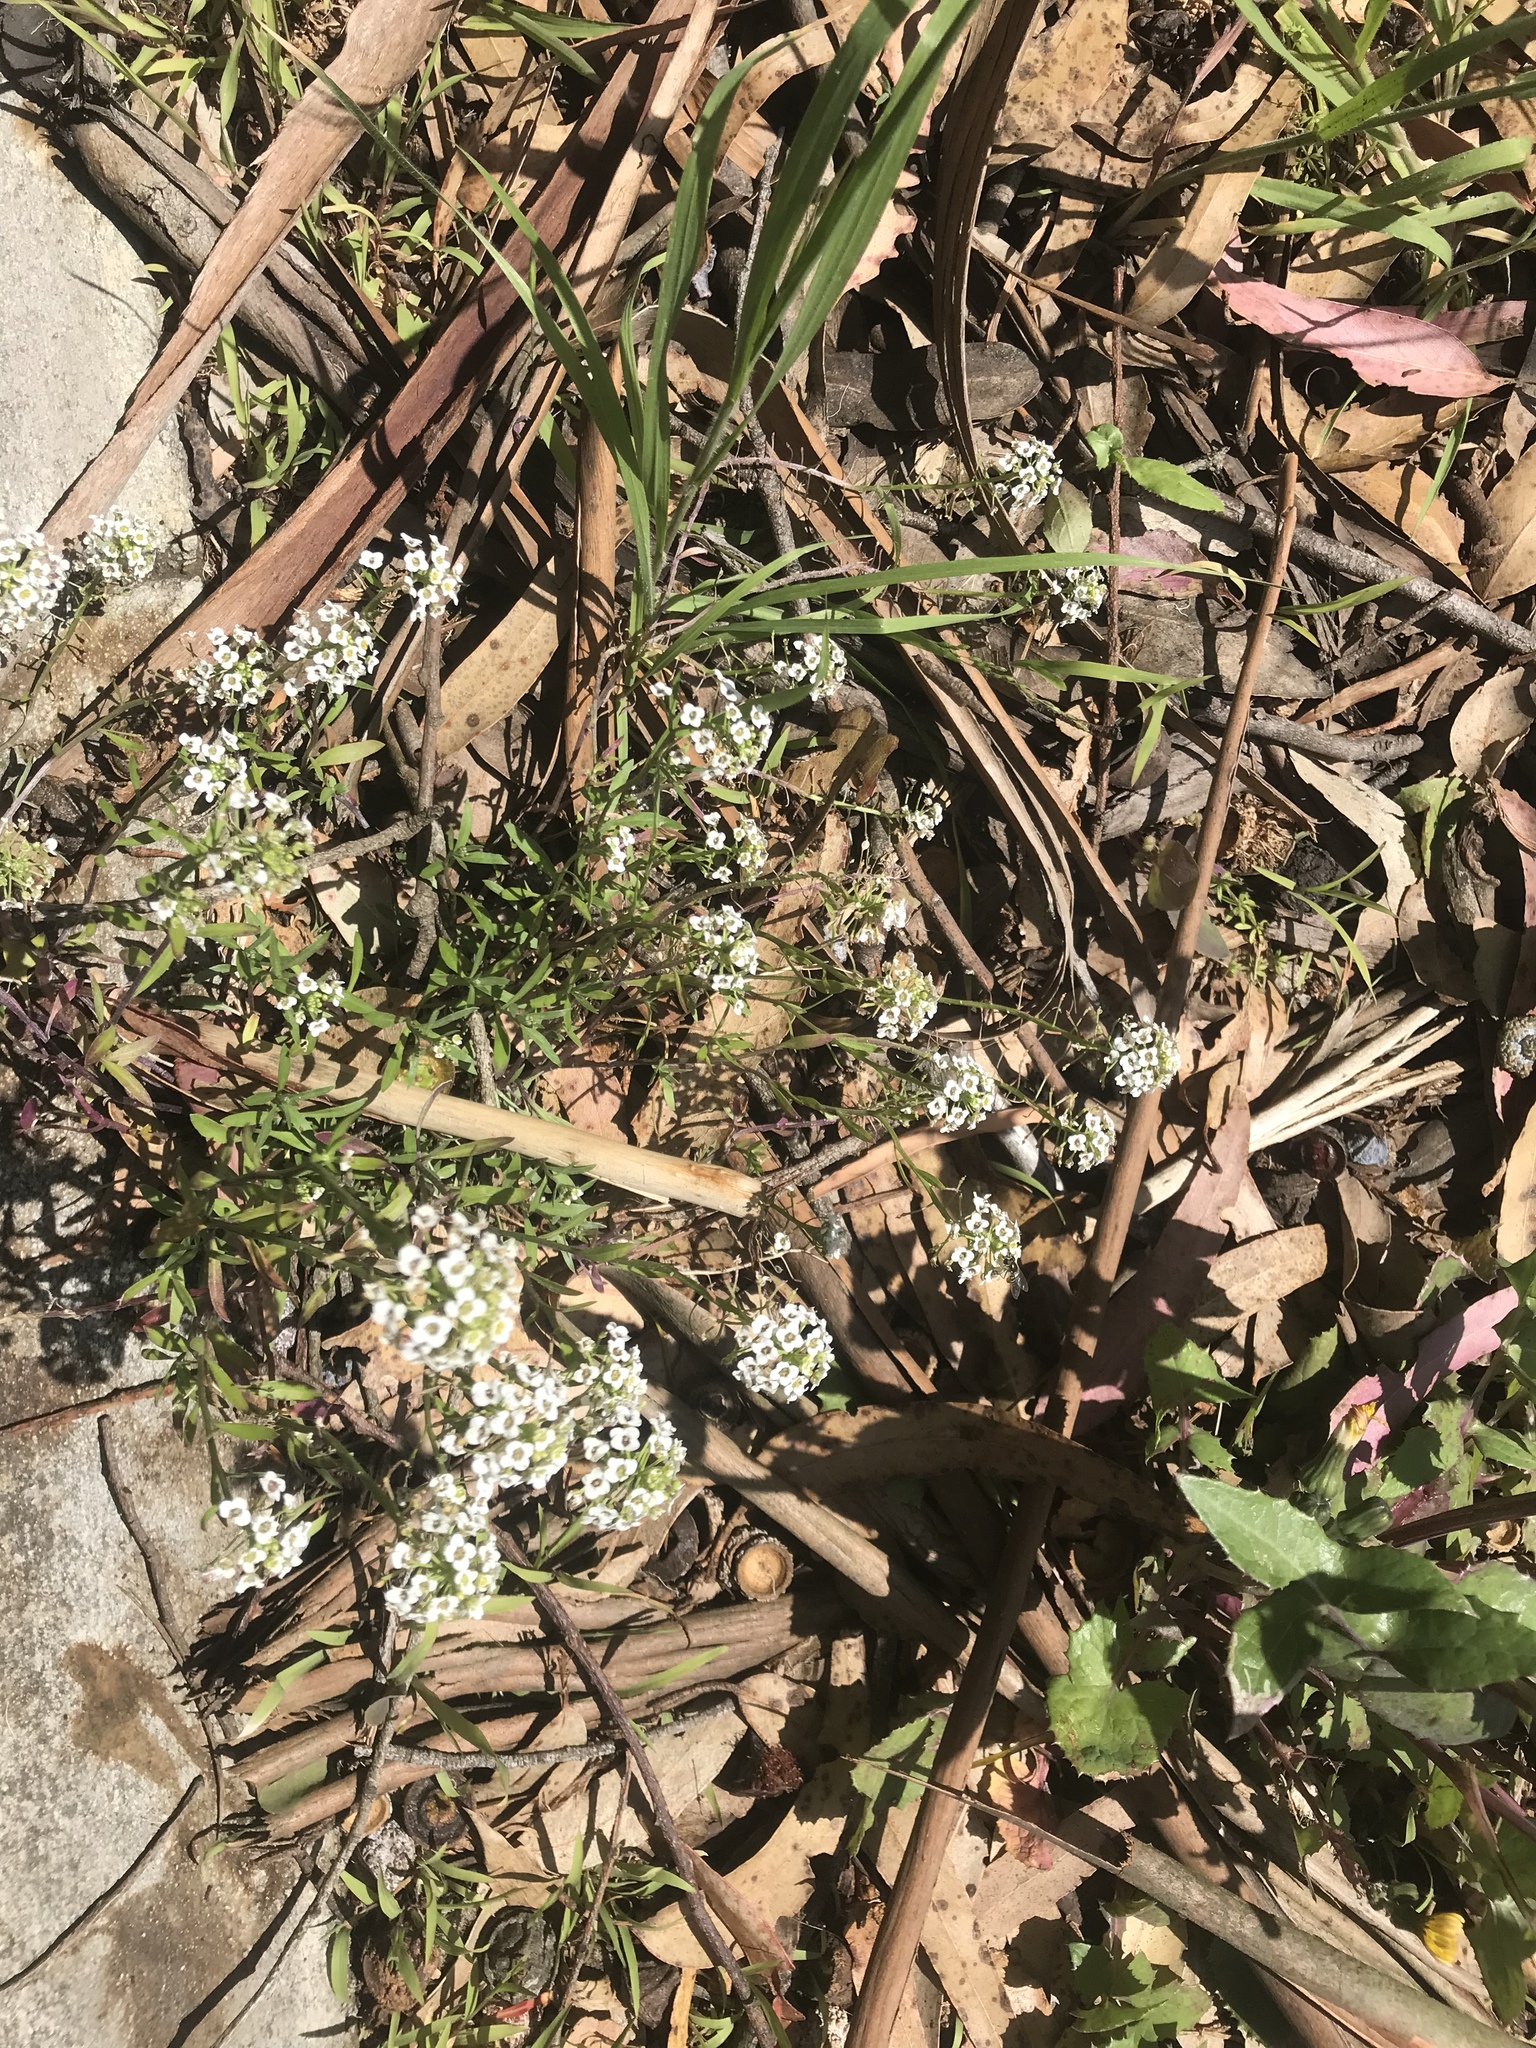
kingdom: Plantae
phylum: Tracheophyta
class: Magnoliopsida
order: Brassicales
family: Brassicaceae
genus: Lobularia
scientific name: Lobularia maritima
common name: Sweet alison
